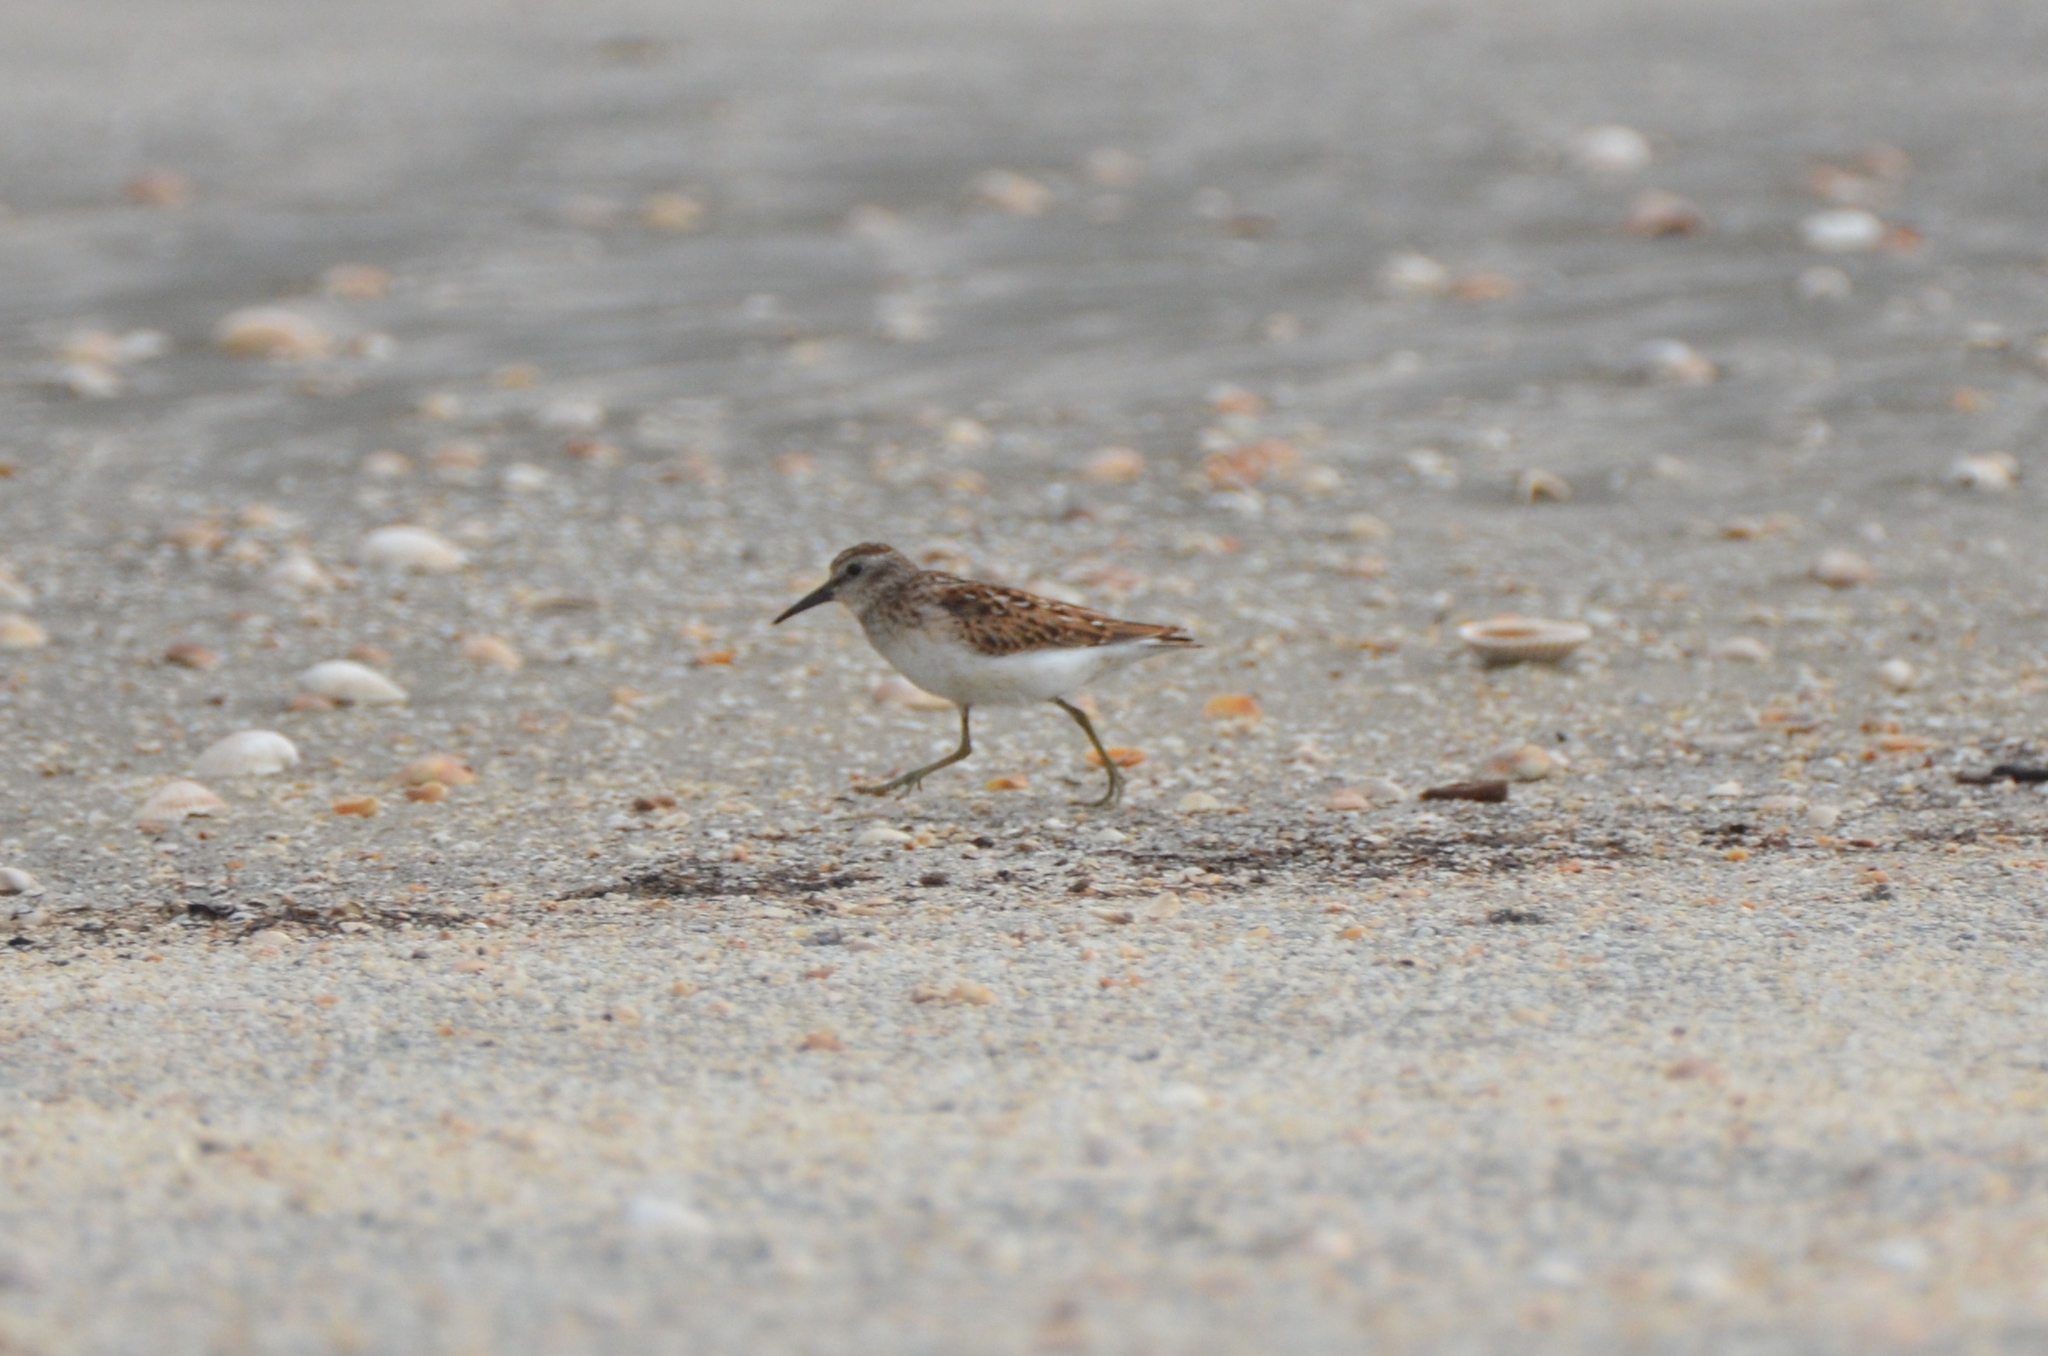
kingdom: Animalia
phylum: Chordata
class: Aves
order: Charadriiformes
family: Scolopacidae
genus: Calidris
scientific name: Calidris minutilla
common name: Least sandpiper
